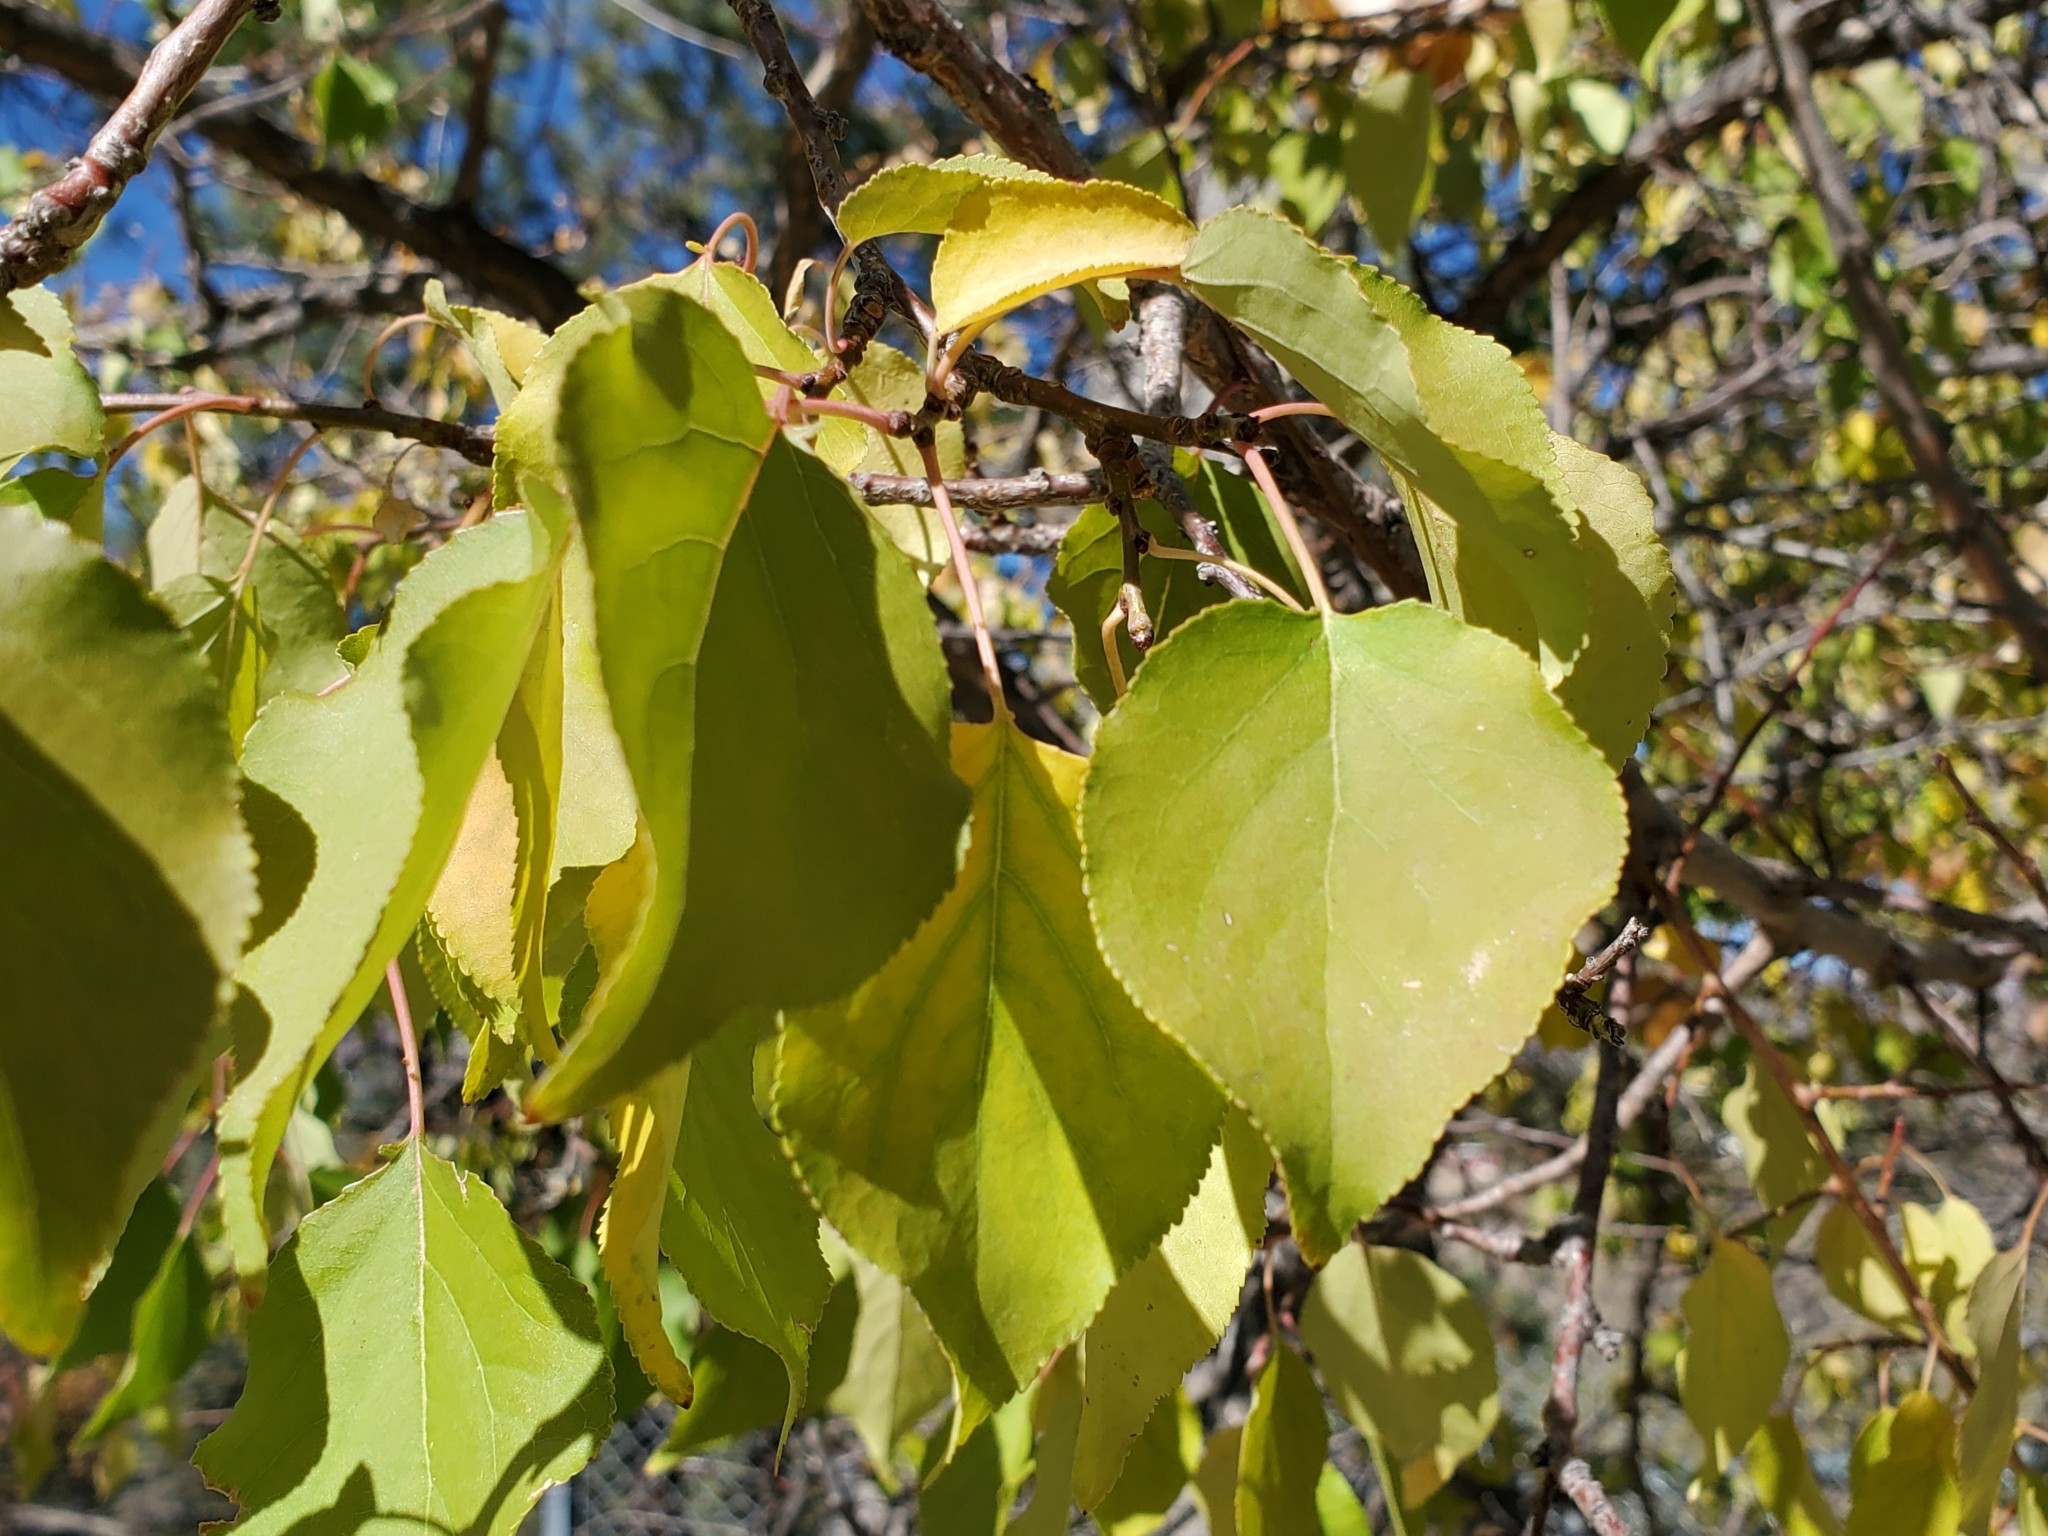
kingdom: Plantae
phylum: Tracheophyta
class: Magnoliopsida
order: Rosales
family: Rosaceae
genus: Prunus
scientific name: Prunus armeniaca
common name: Apricot
